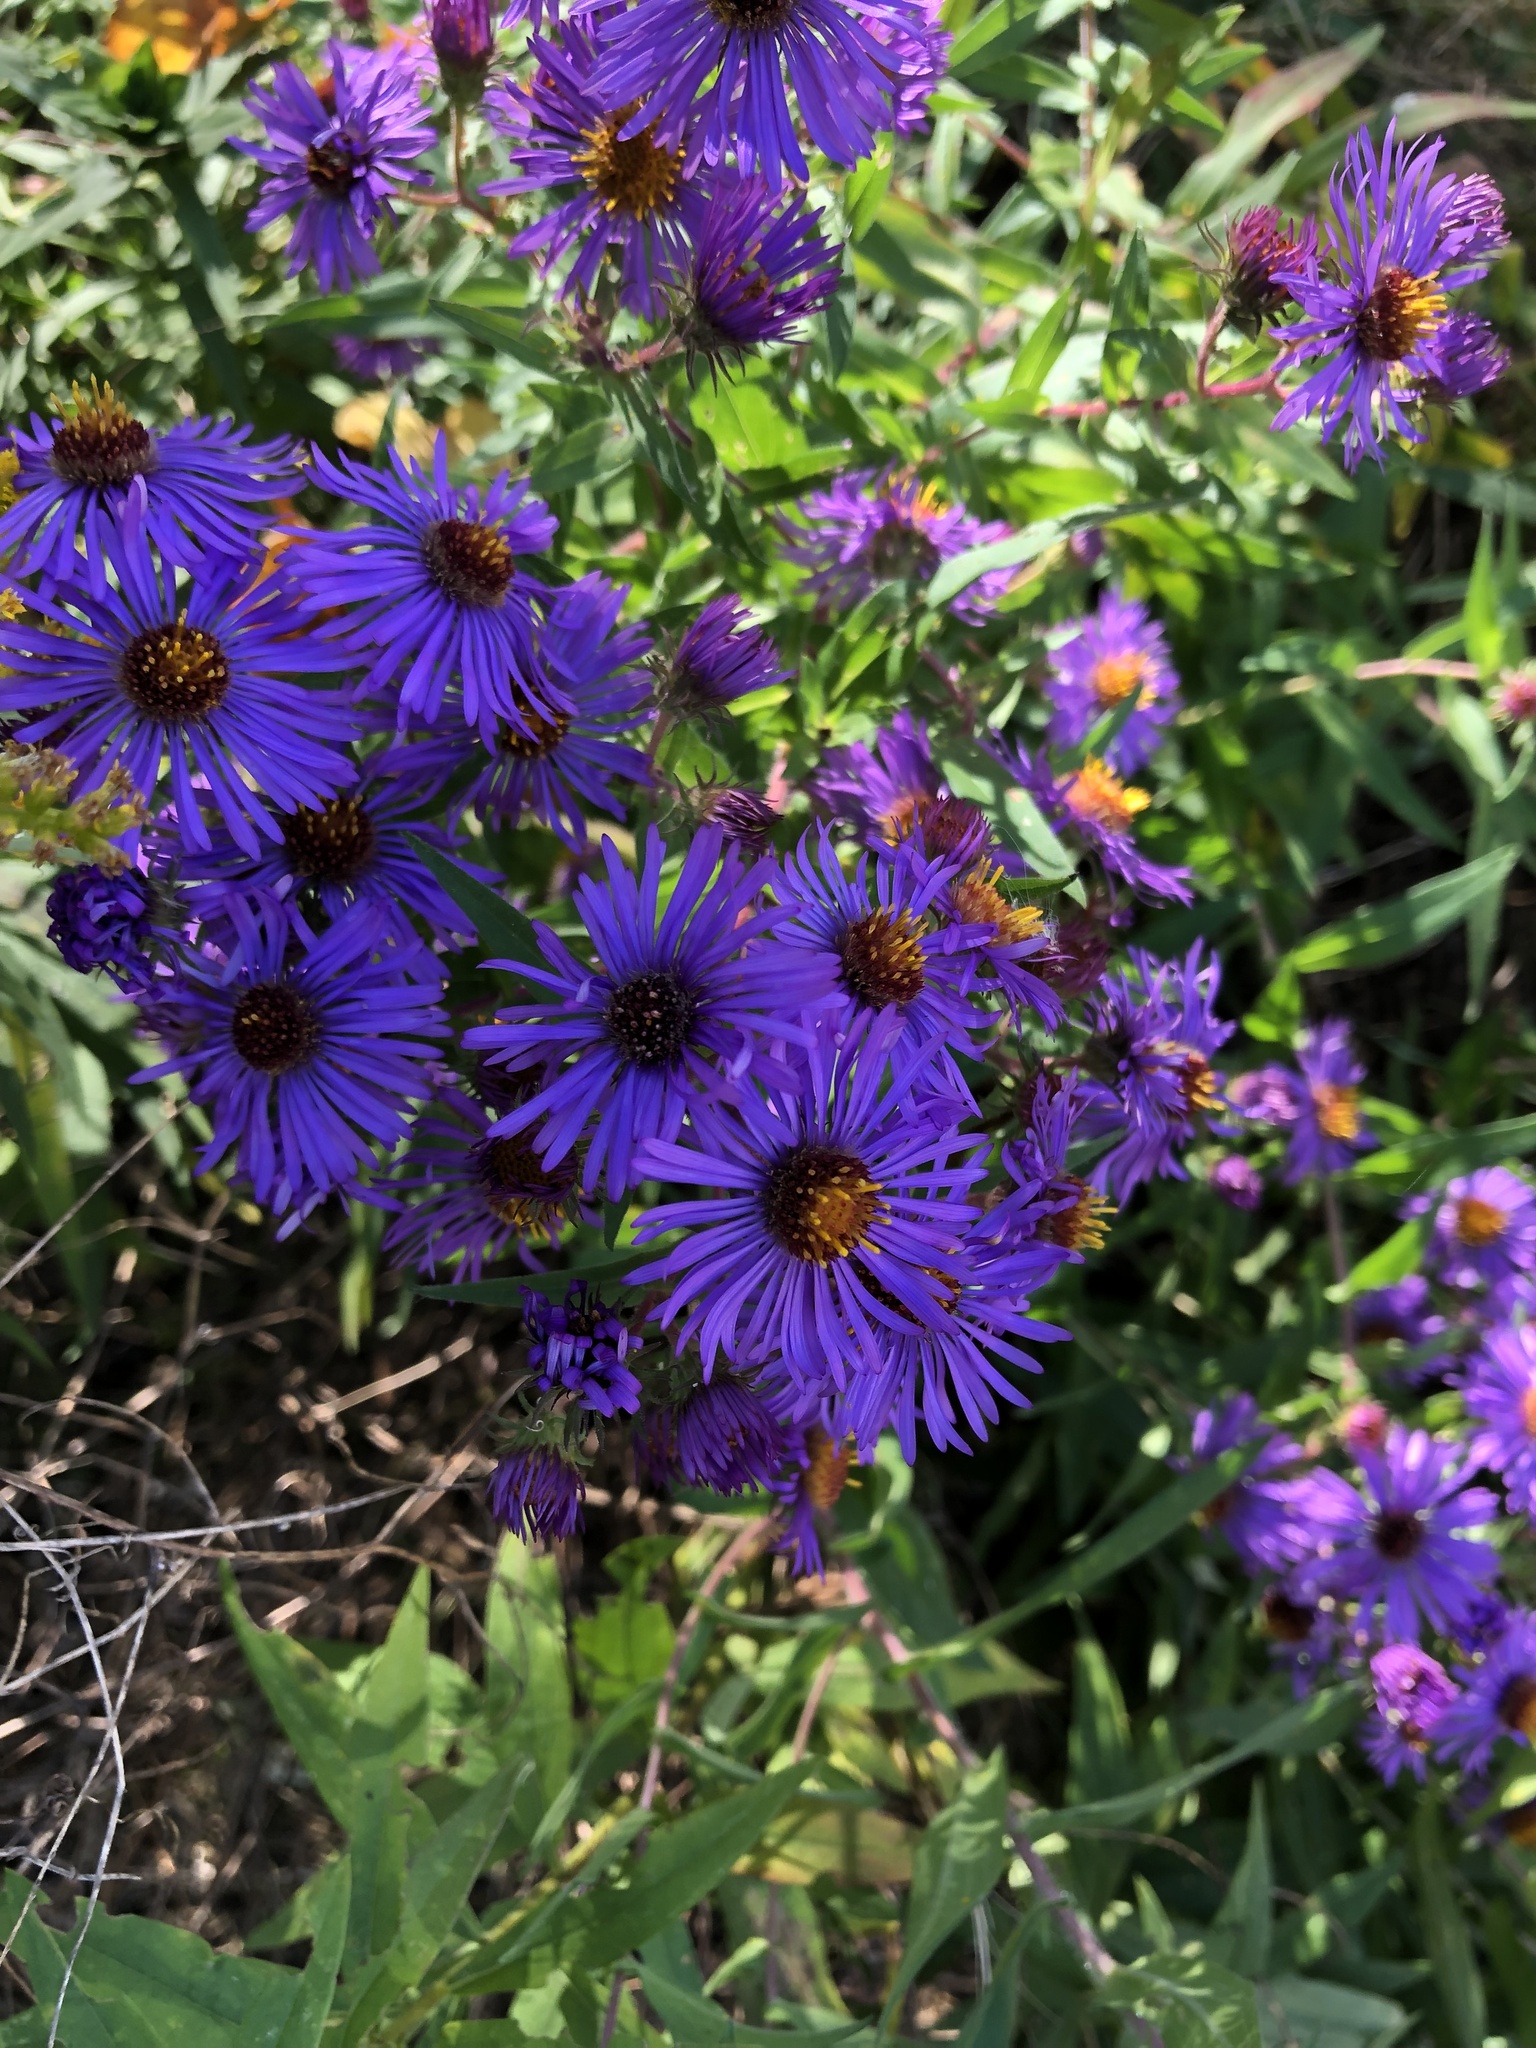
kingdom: Plantae
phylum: Tracheophyta
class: Magnoliopsida
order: Asterales
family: Asteraceae
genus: Symphyotrichum
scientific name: Symphyotrichum novae-angliae
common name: Michaelmas daisy
